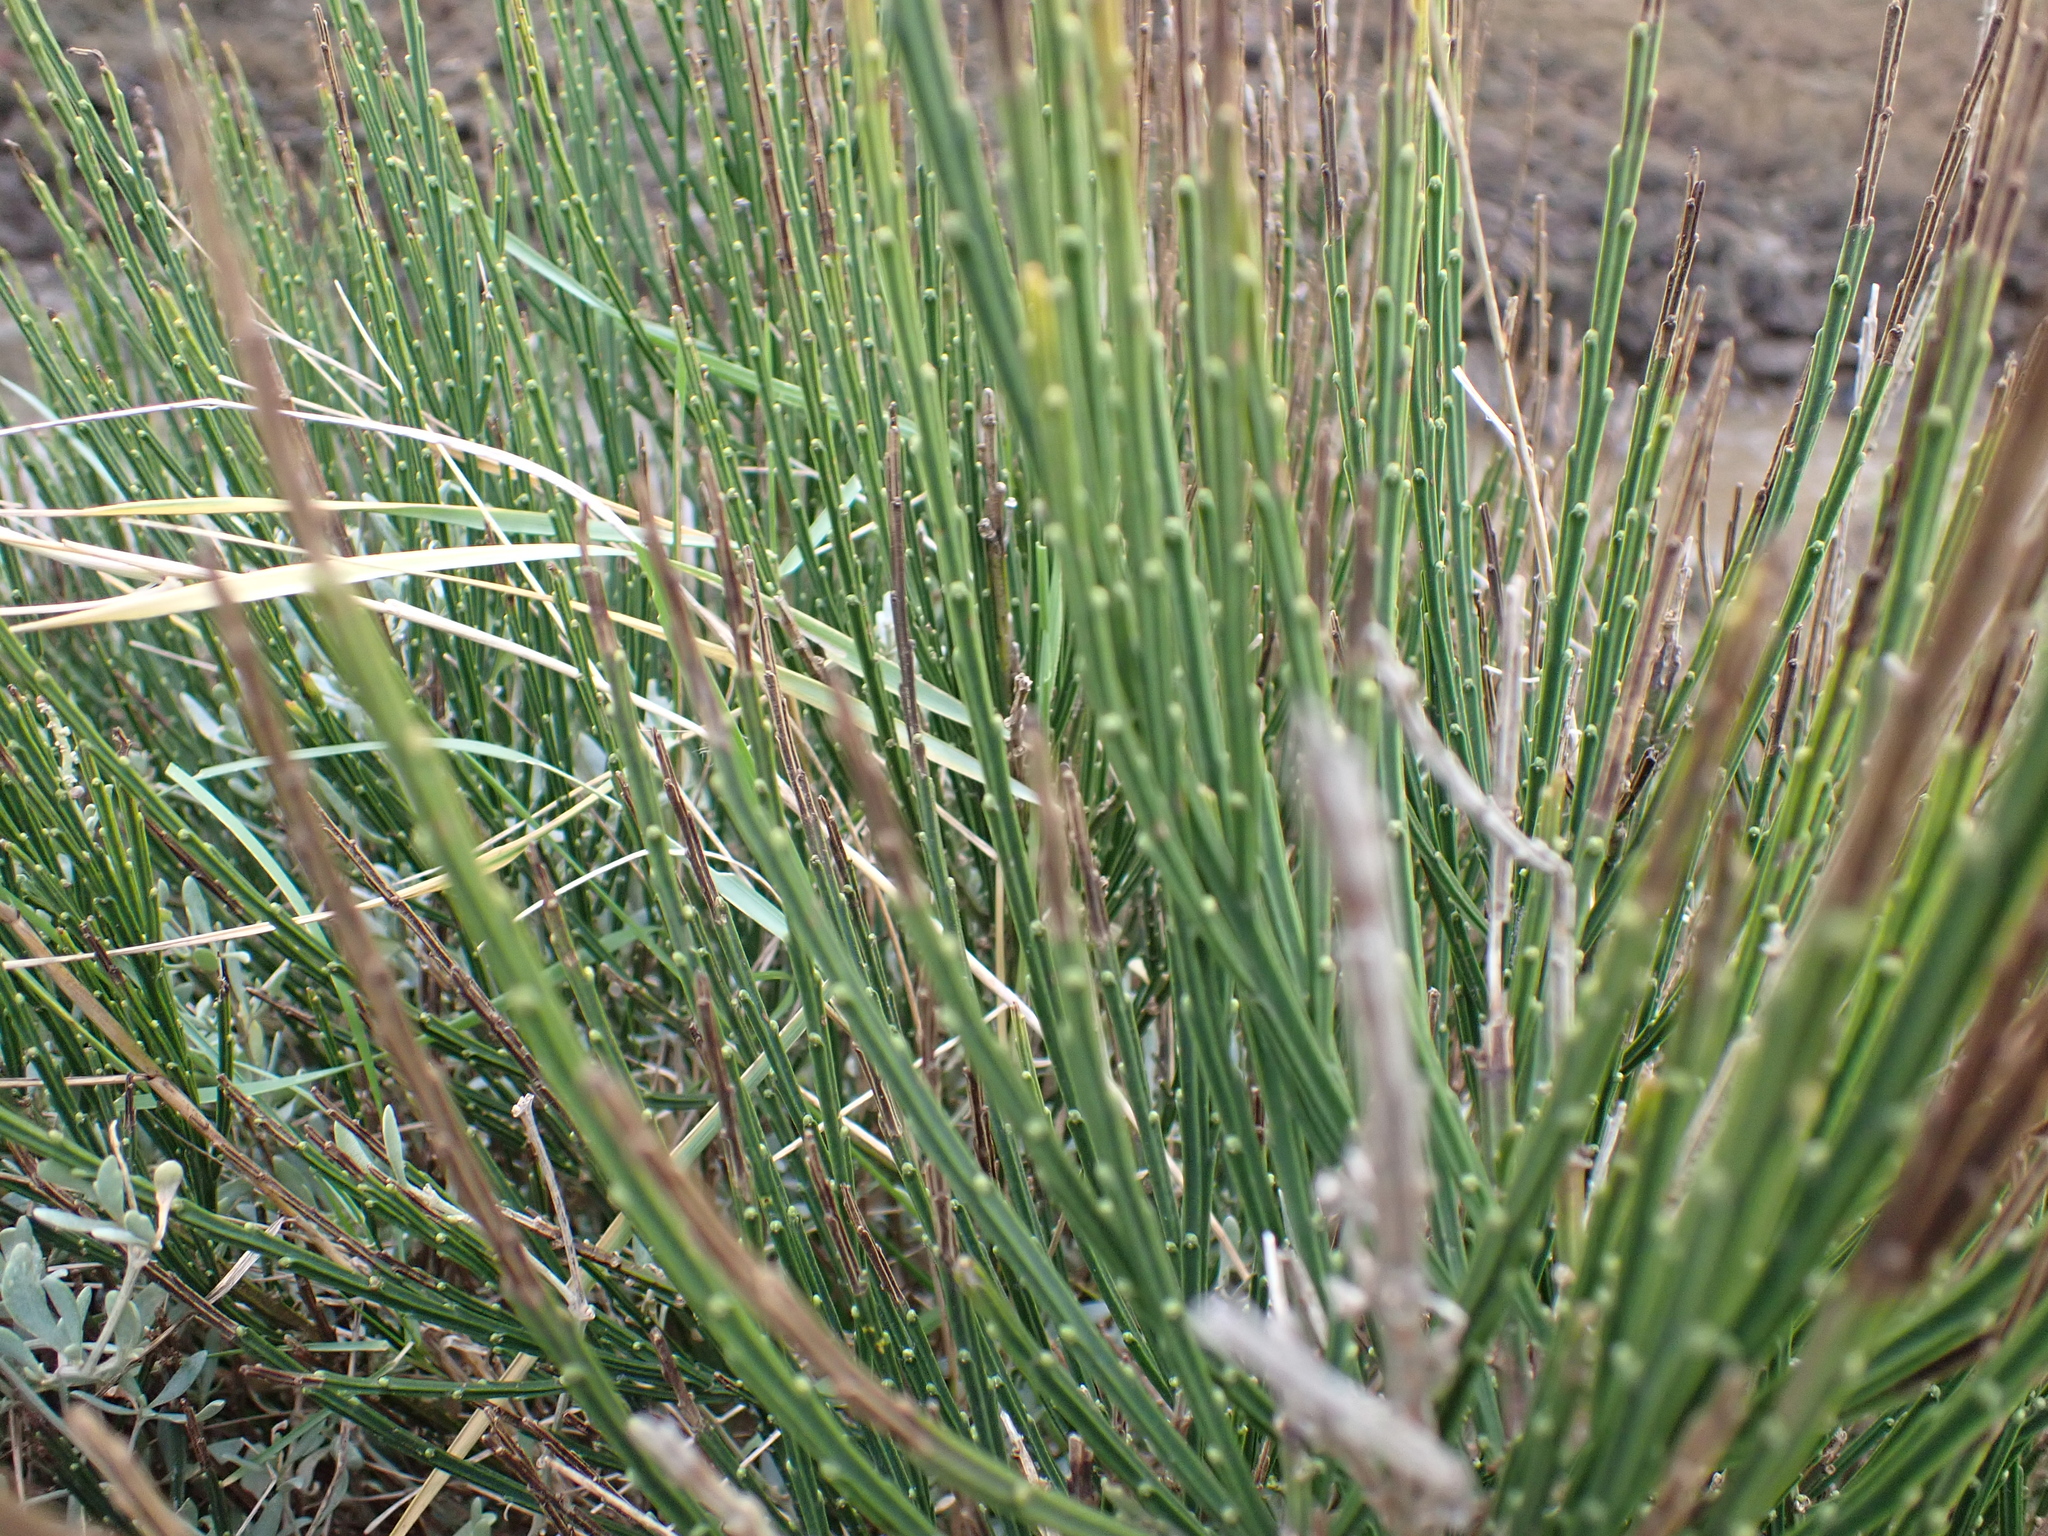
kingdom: Plantae
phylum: Tracheophyta
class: Magnoliopsida
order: Fabales
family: Fabaceae
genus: Cytisus
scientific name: Cytisus scoparius
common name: Scotch broom
